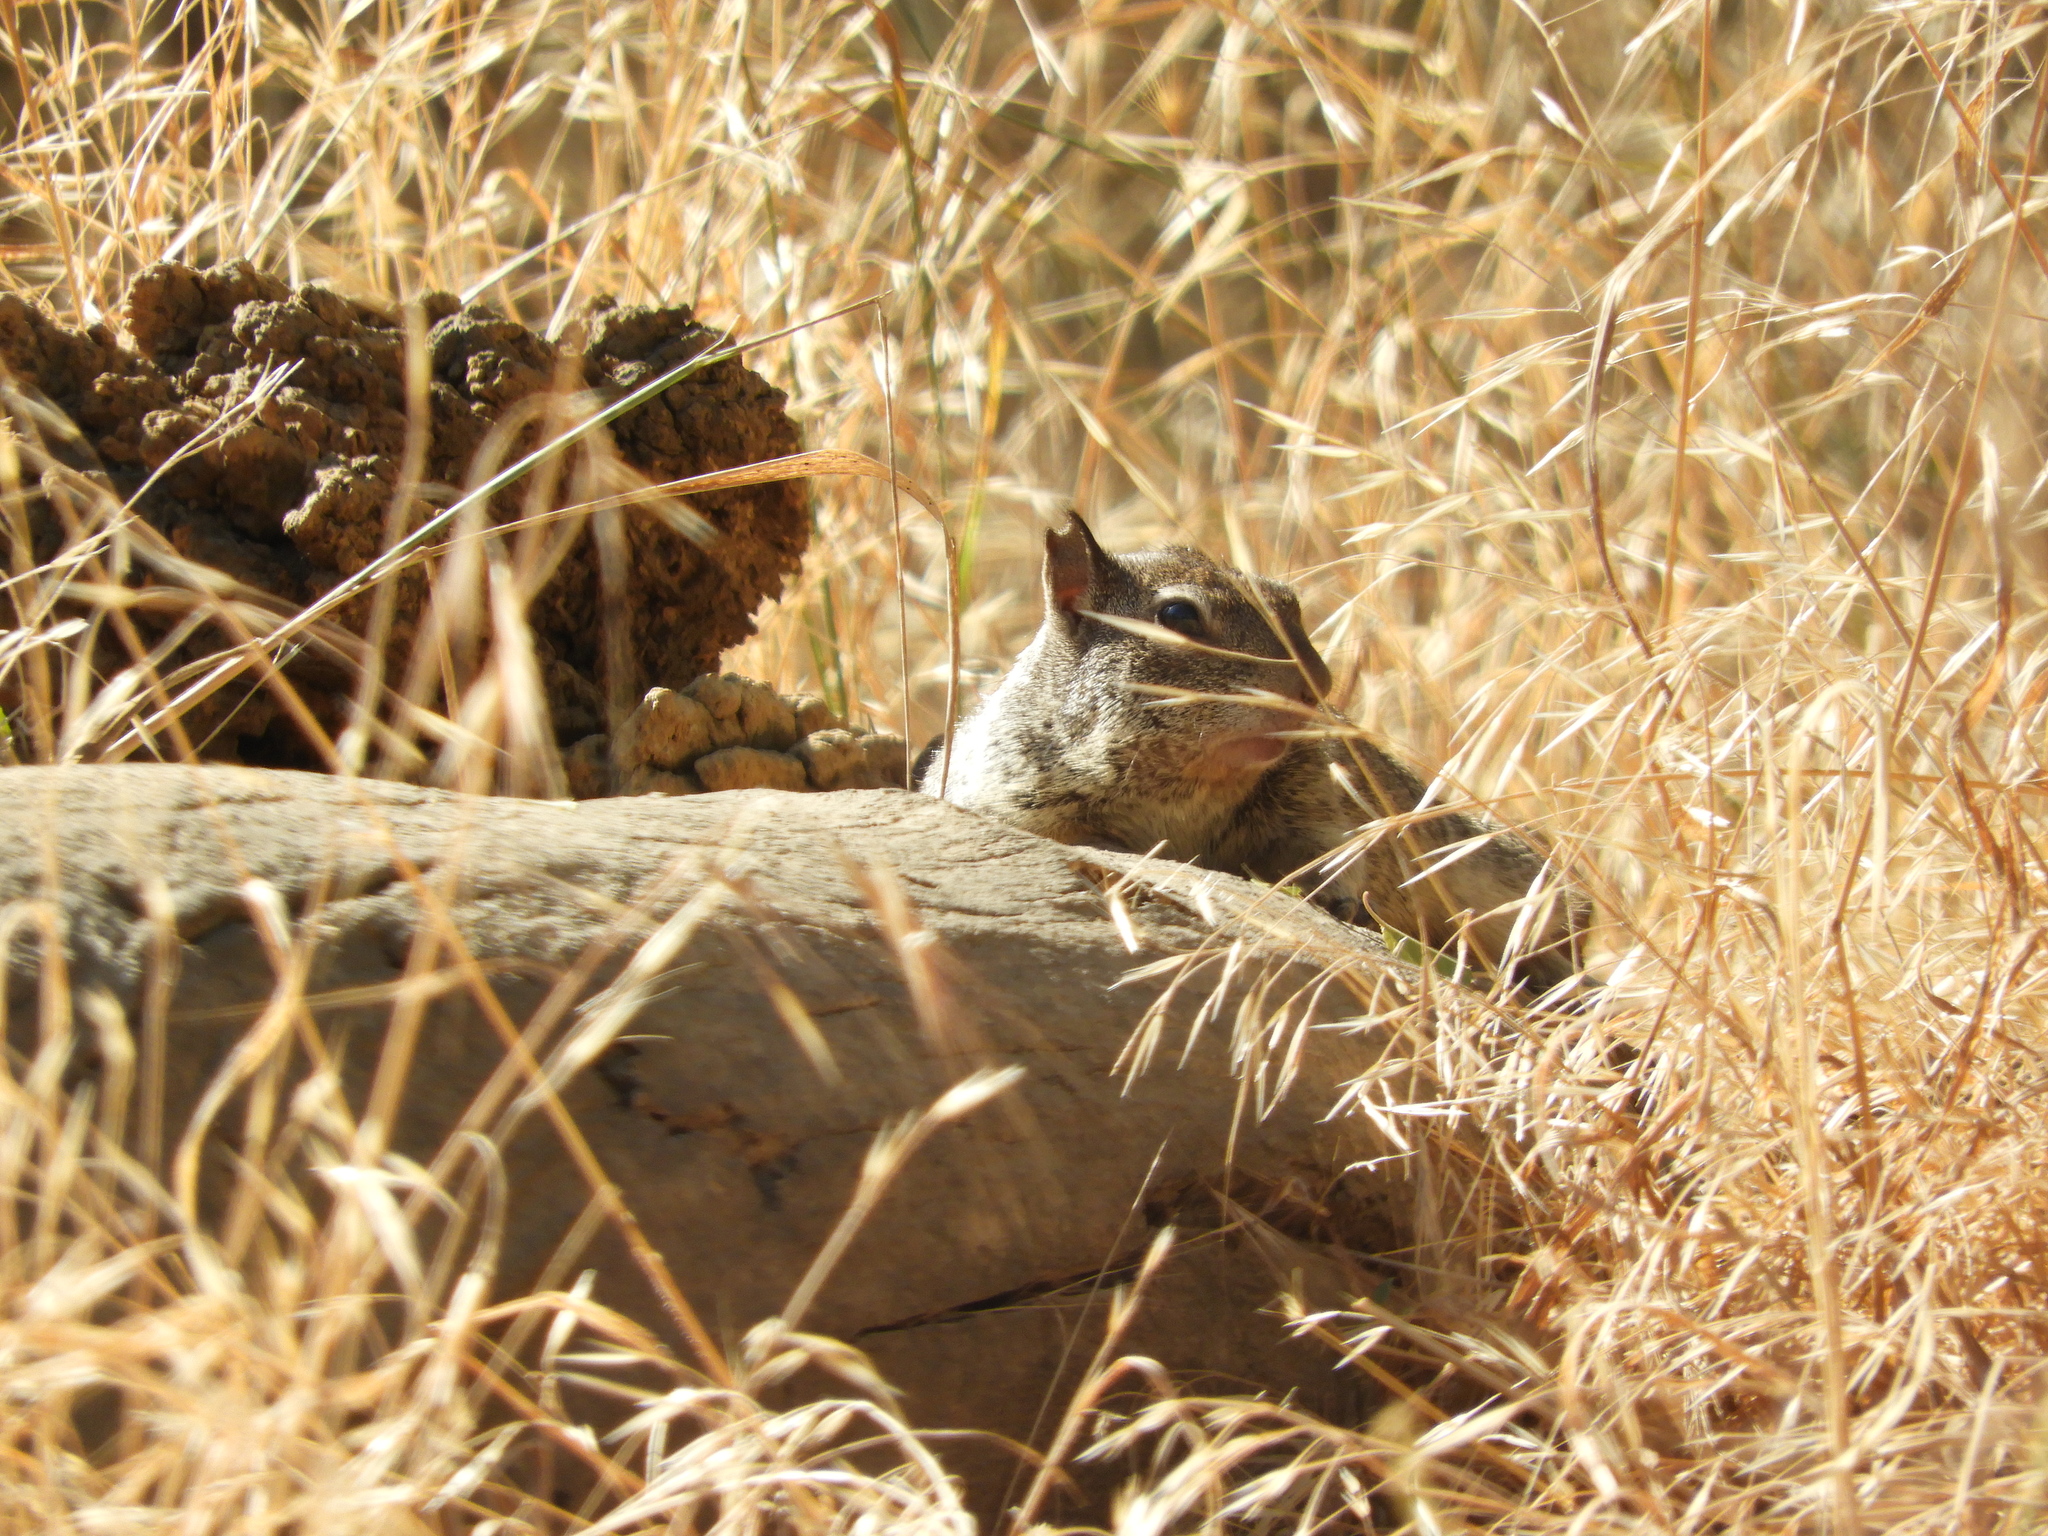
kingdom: Animalia
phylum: Chordata
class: Mammalia
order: Rodentia
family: Sciuridae
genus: Otospermophilus
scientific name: Otospermophilus beecheyi
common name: California ground squirrel
